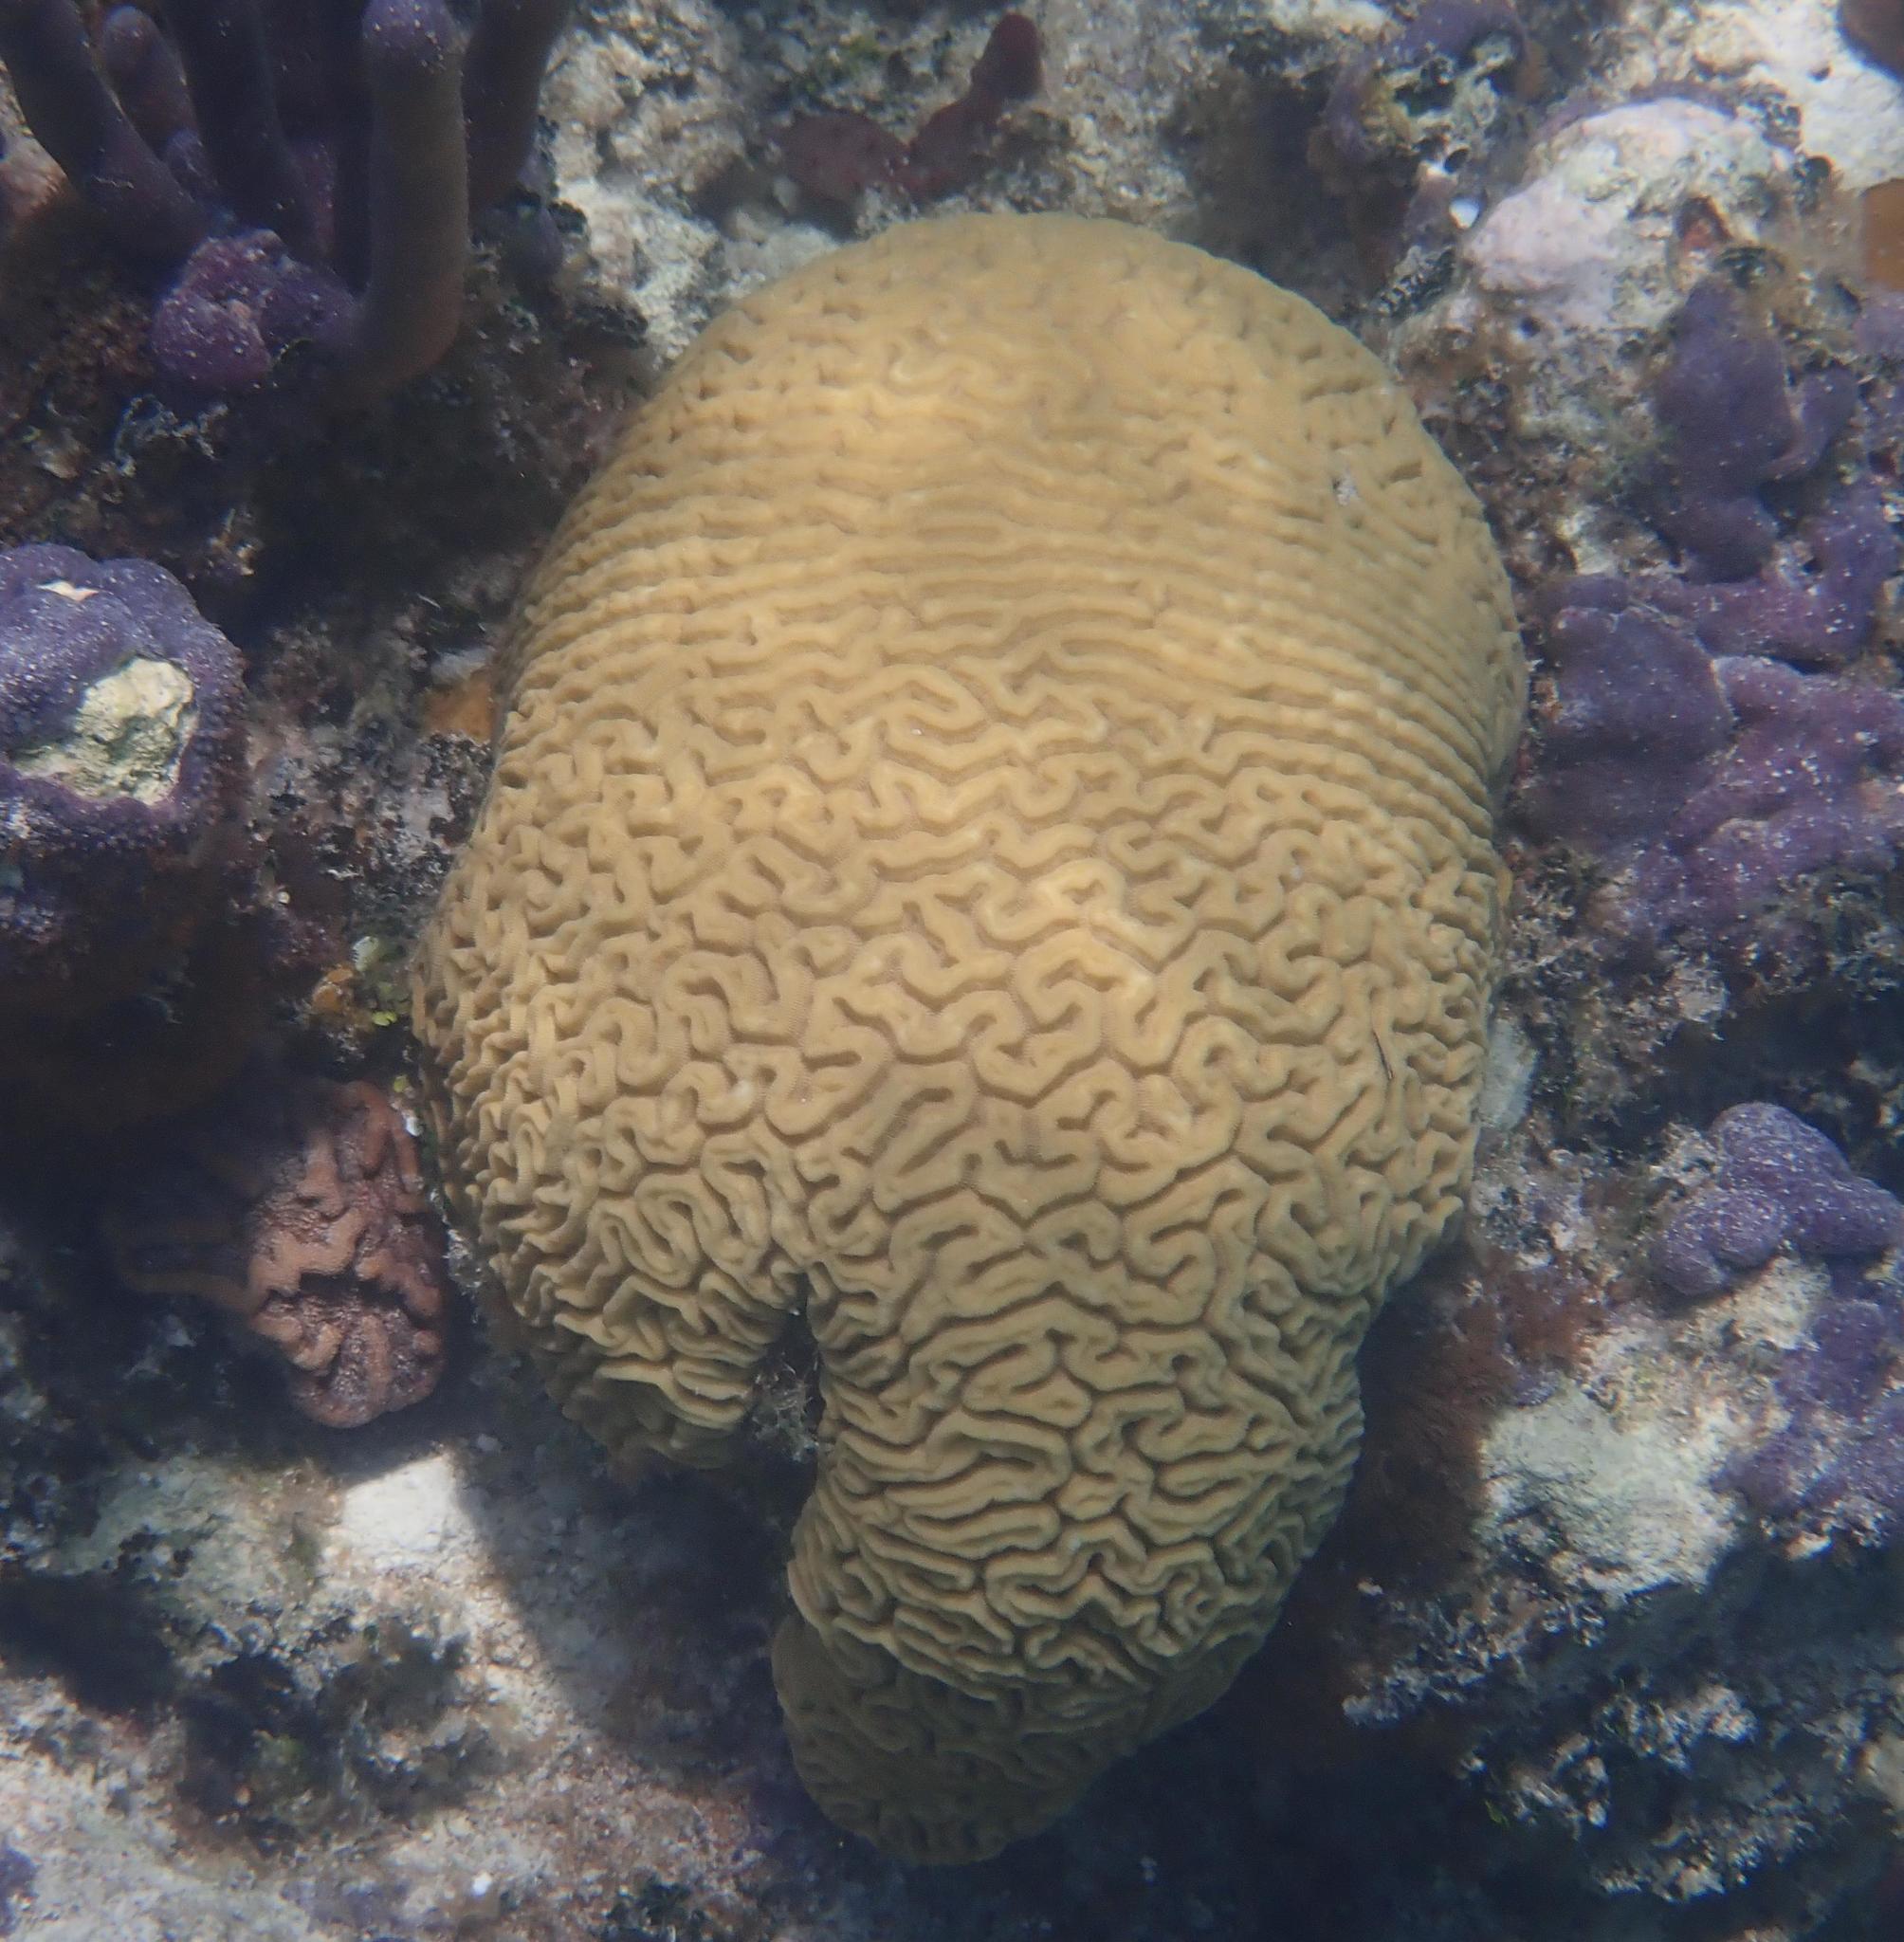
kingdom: Animalia
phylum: Cnidaria
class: Anthozoa
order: Scleractinia
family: Faviidae
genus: Diploria
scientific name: Diploria labyrinthiformis
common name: Grooved brain coral
